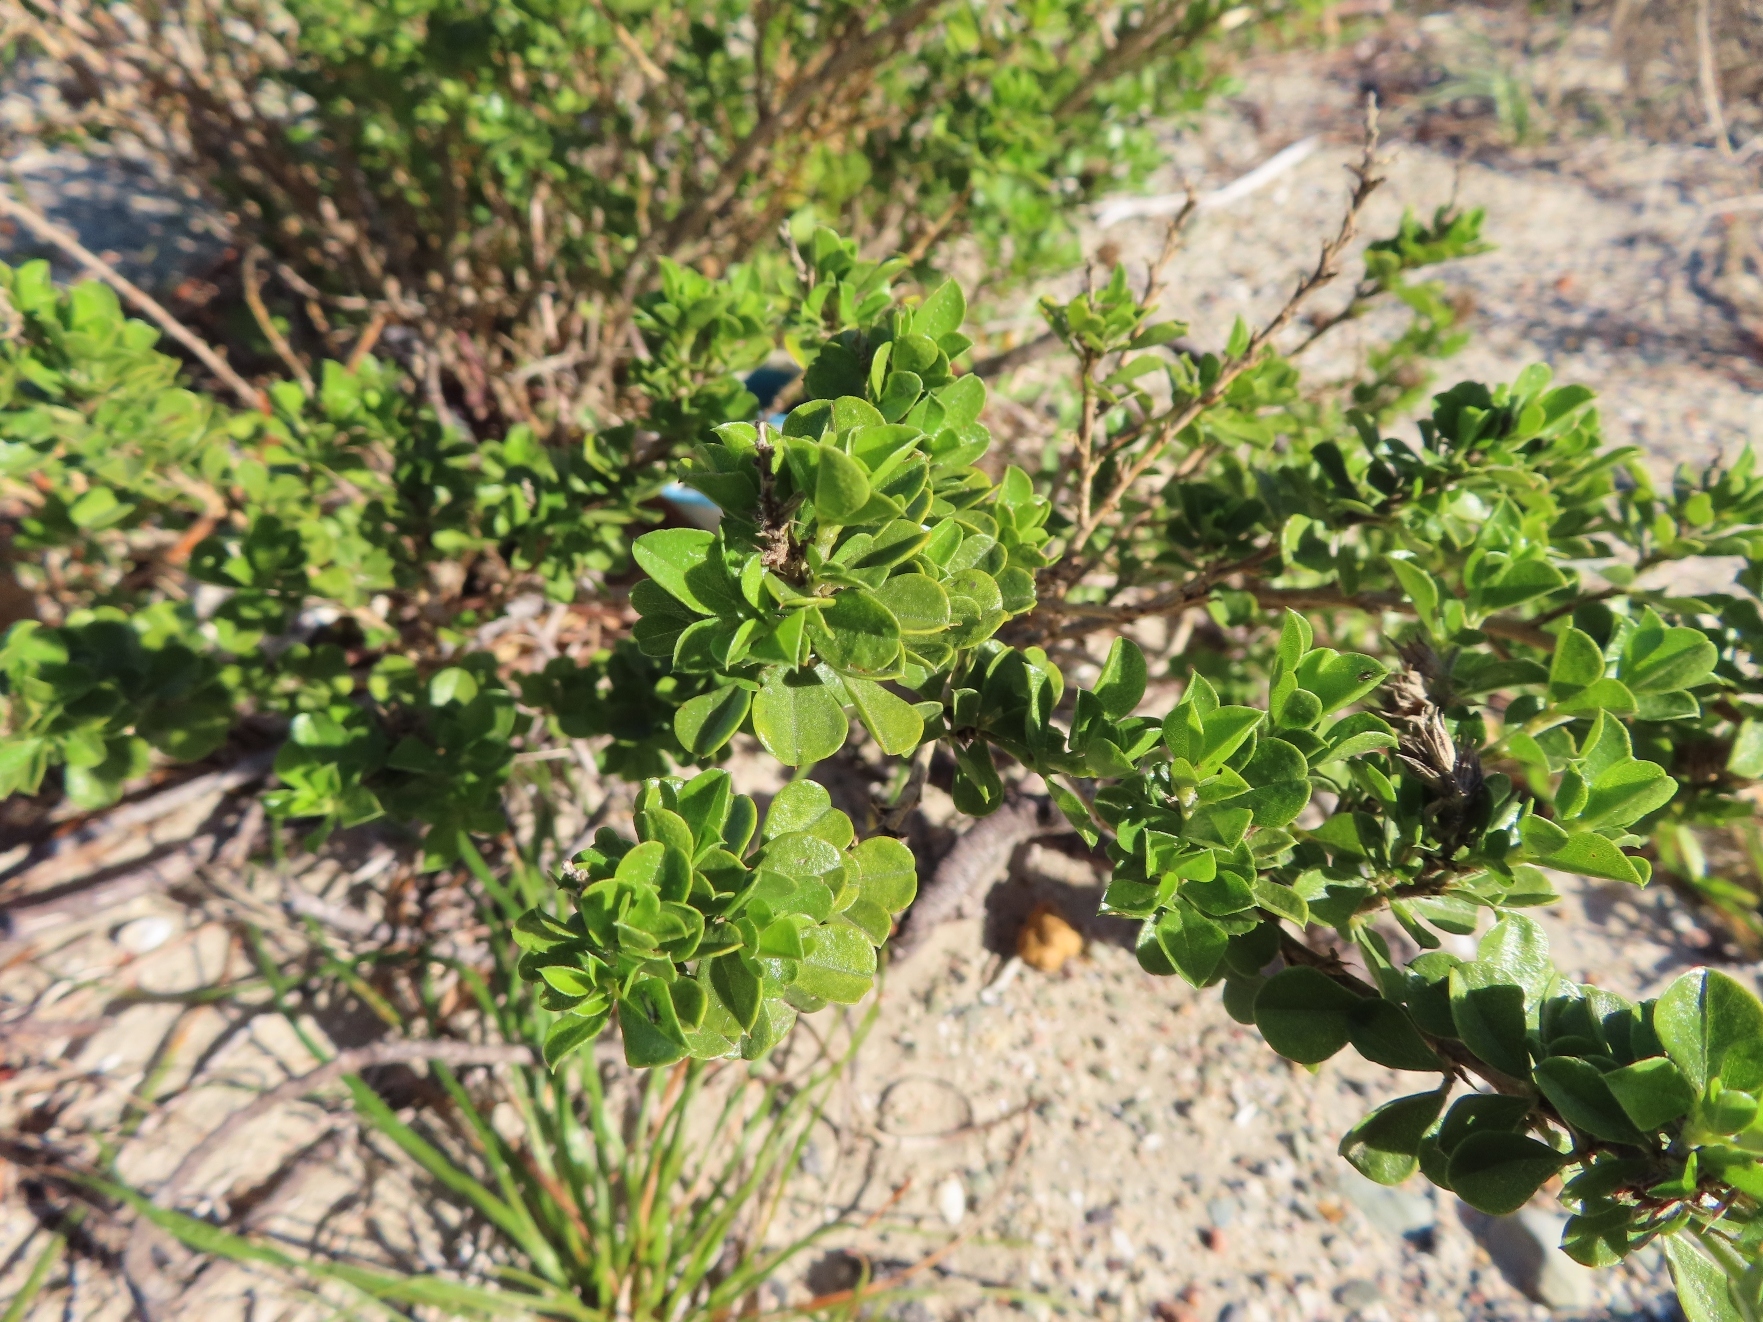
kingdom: Plantae
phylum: Tracheophyta
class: Magnoliopsida
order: Fabales
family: Fabaceae
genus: Psoralea
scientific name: Psoralea bracteolata
